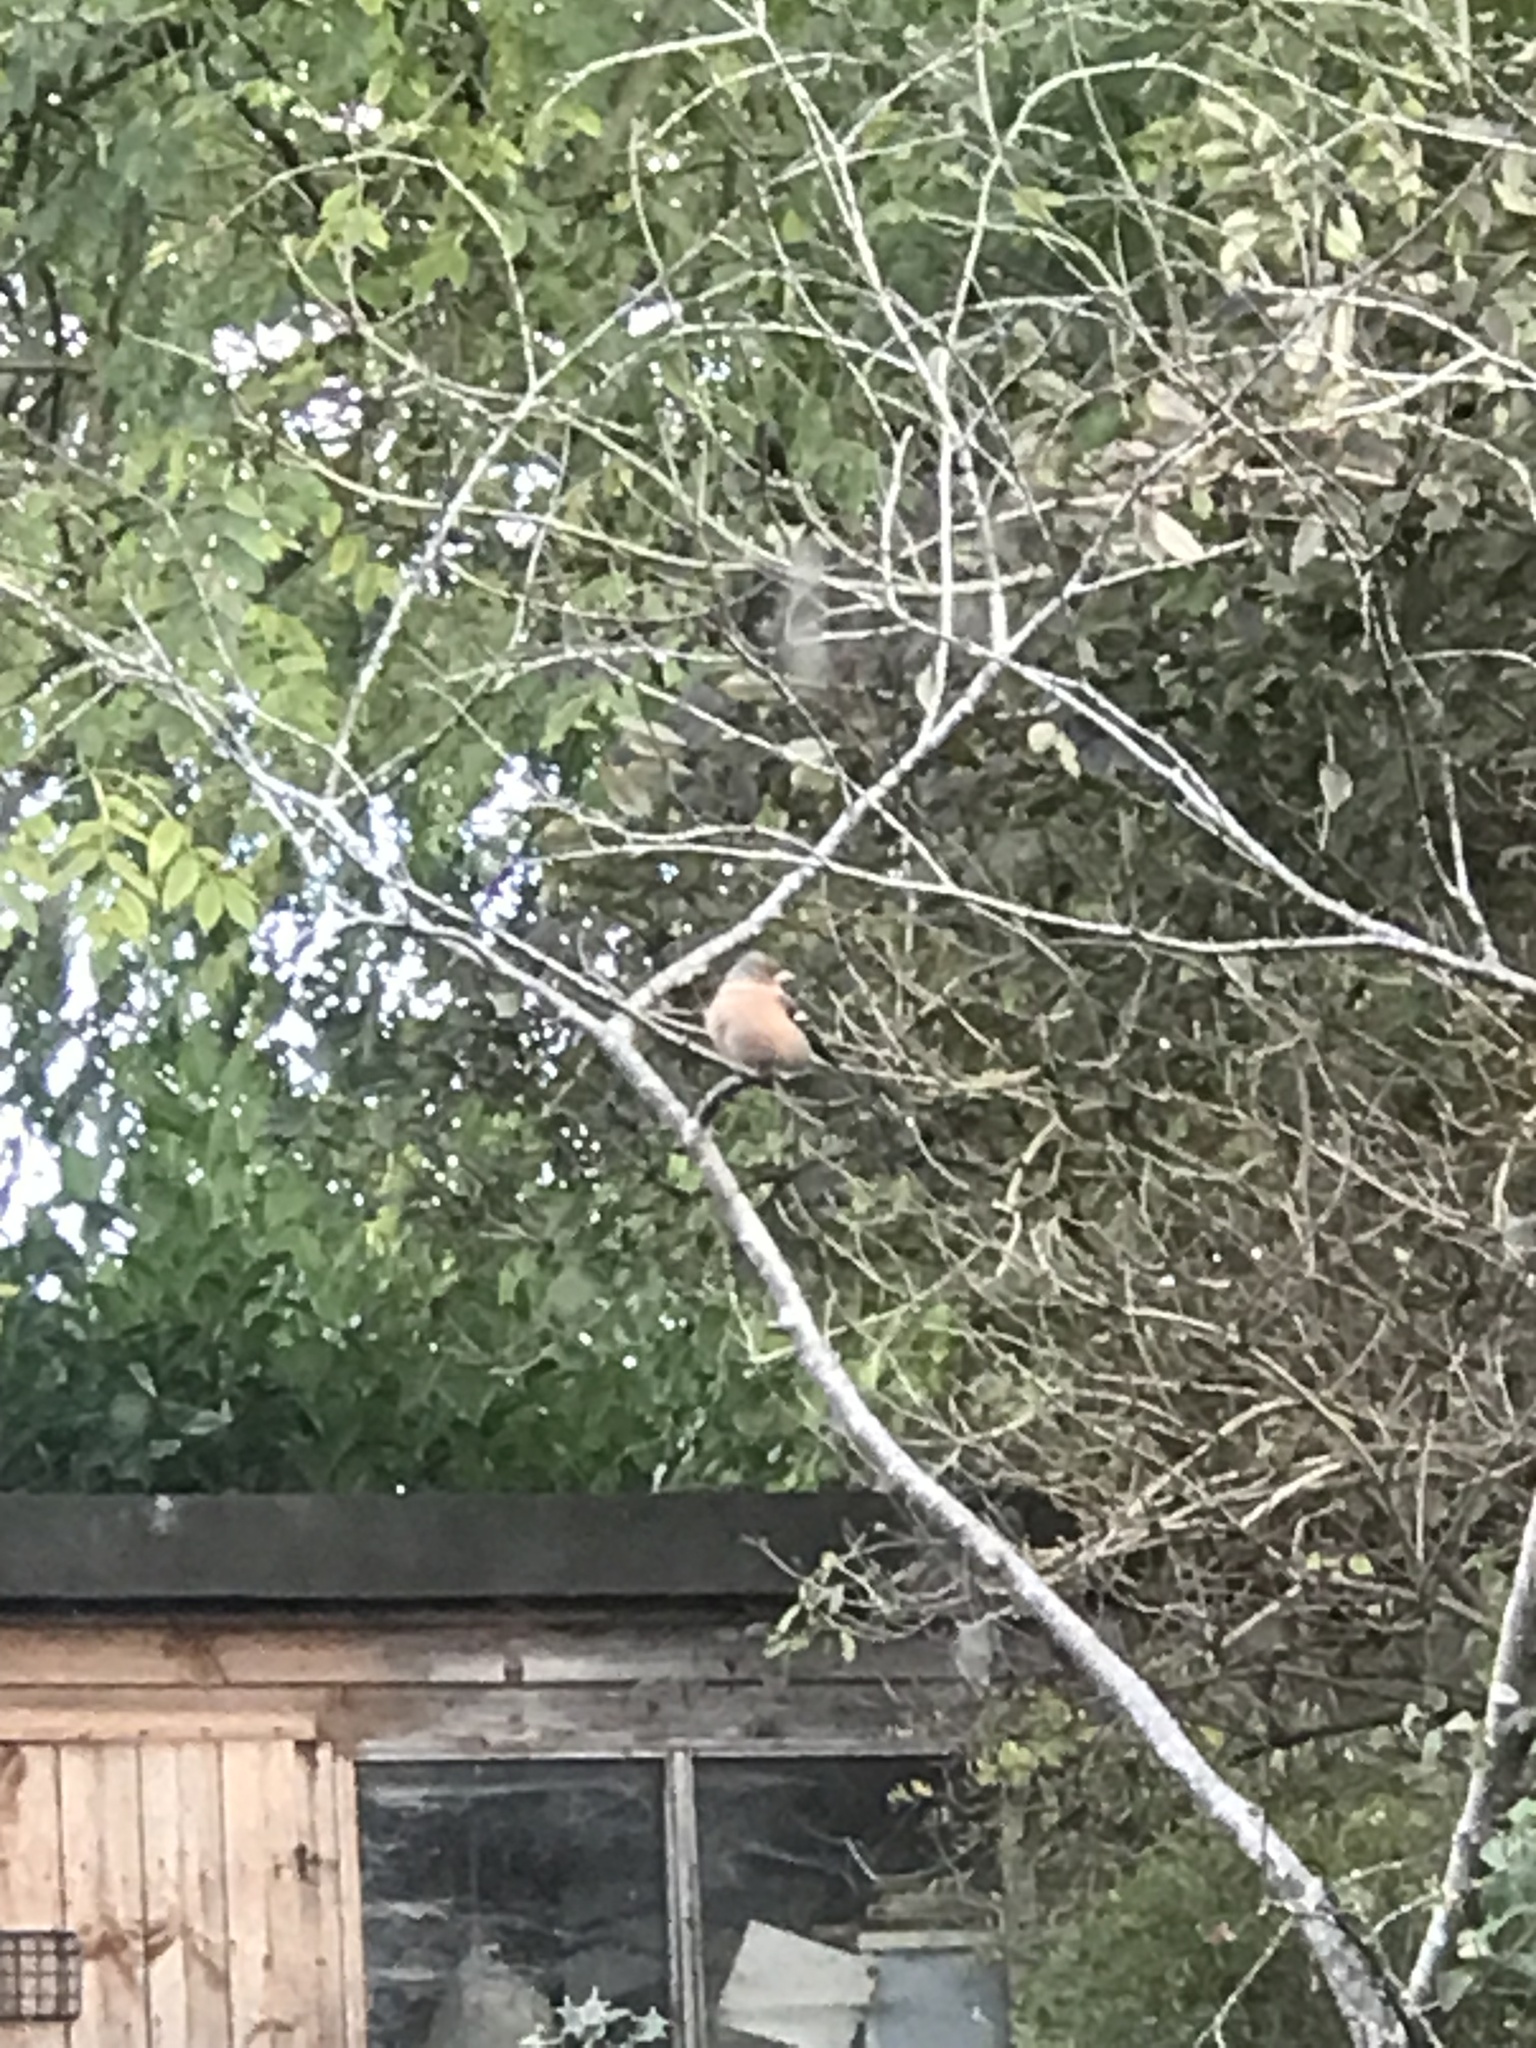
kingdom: Animalia
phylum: Chordata
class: Aves
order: Passeriformes
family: Fringillidae
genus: Fringilla
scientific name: Fringilla coelebs
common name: Common chaffinch
